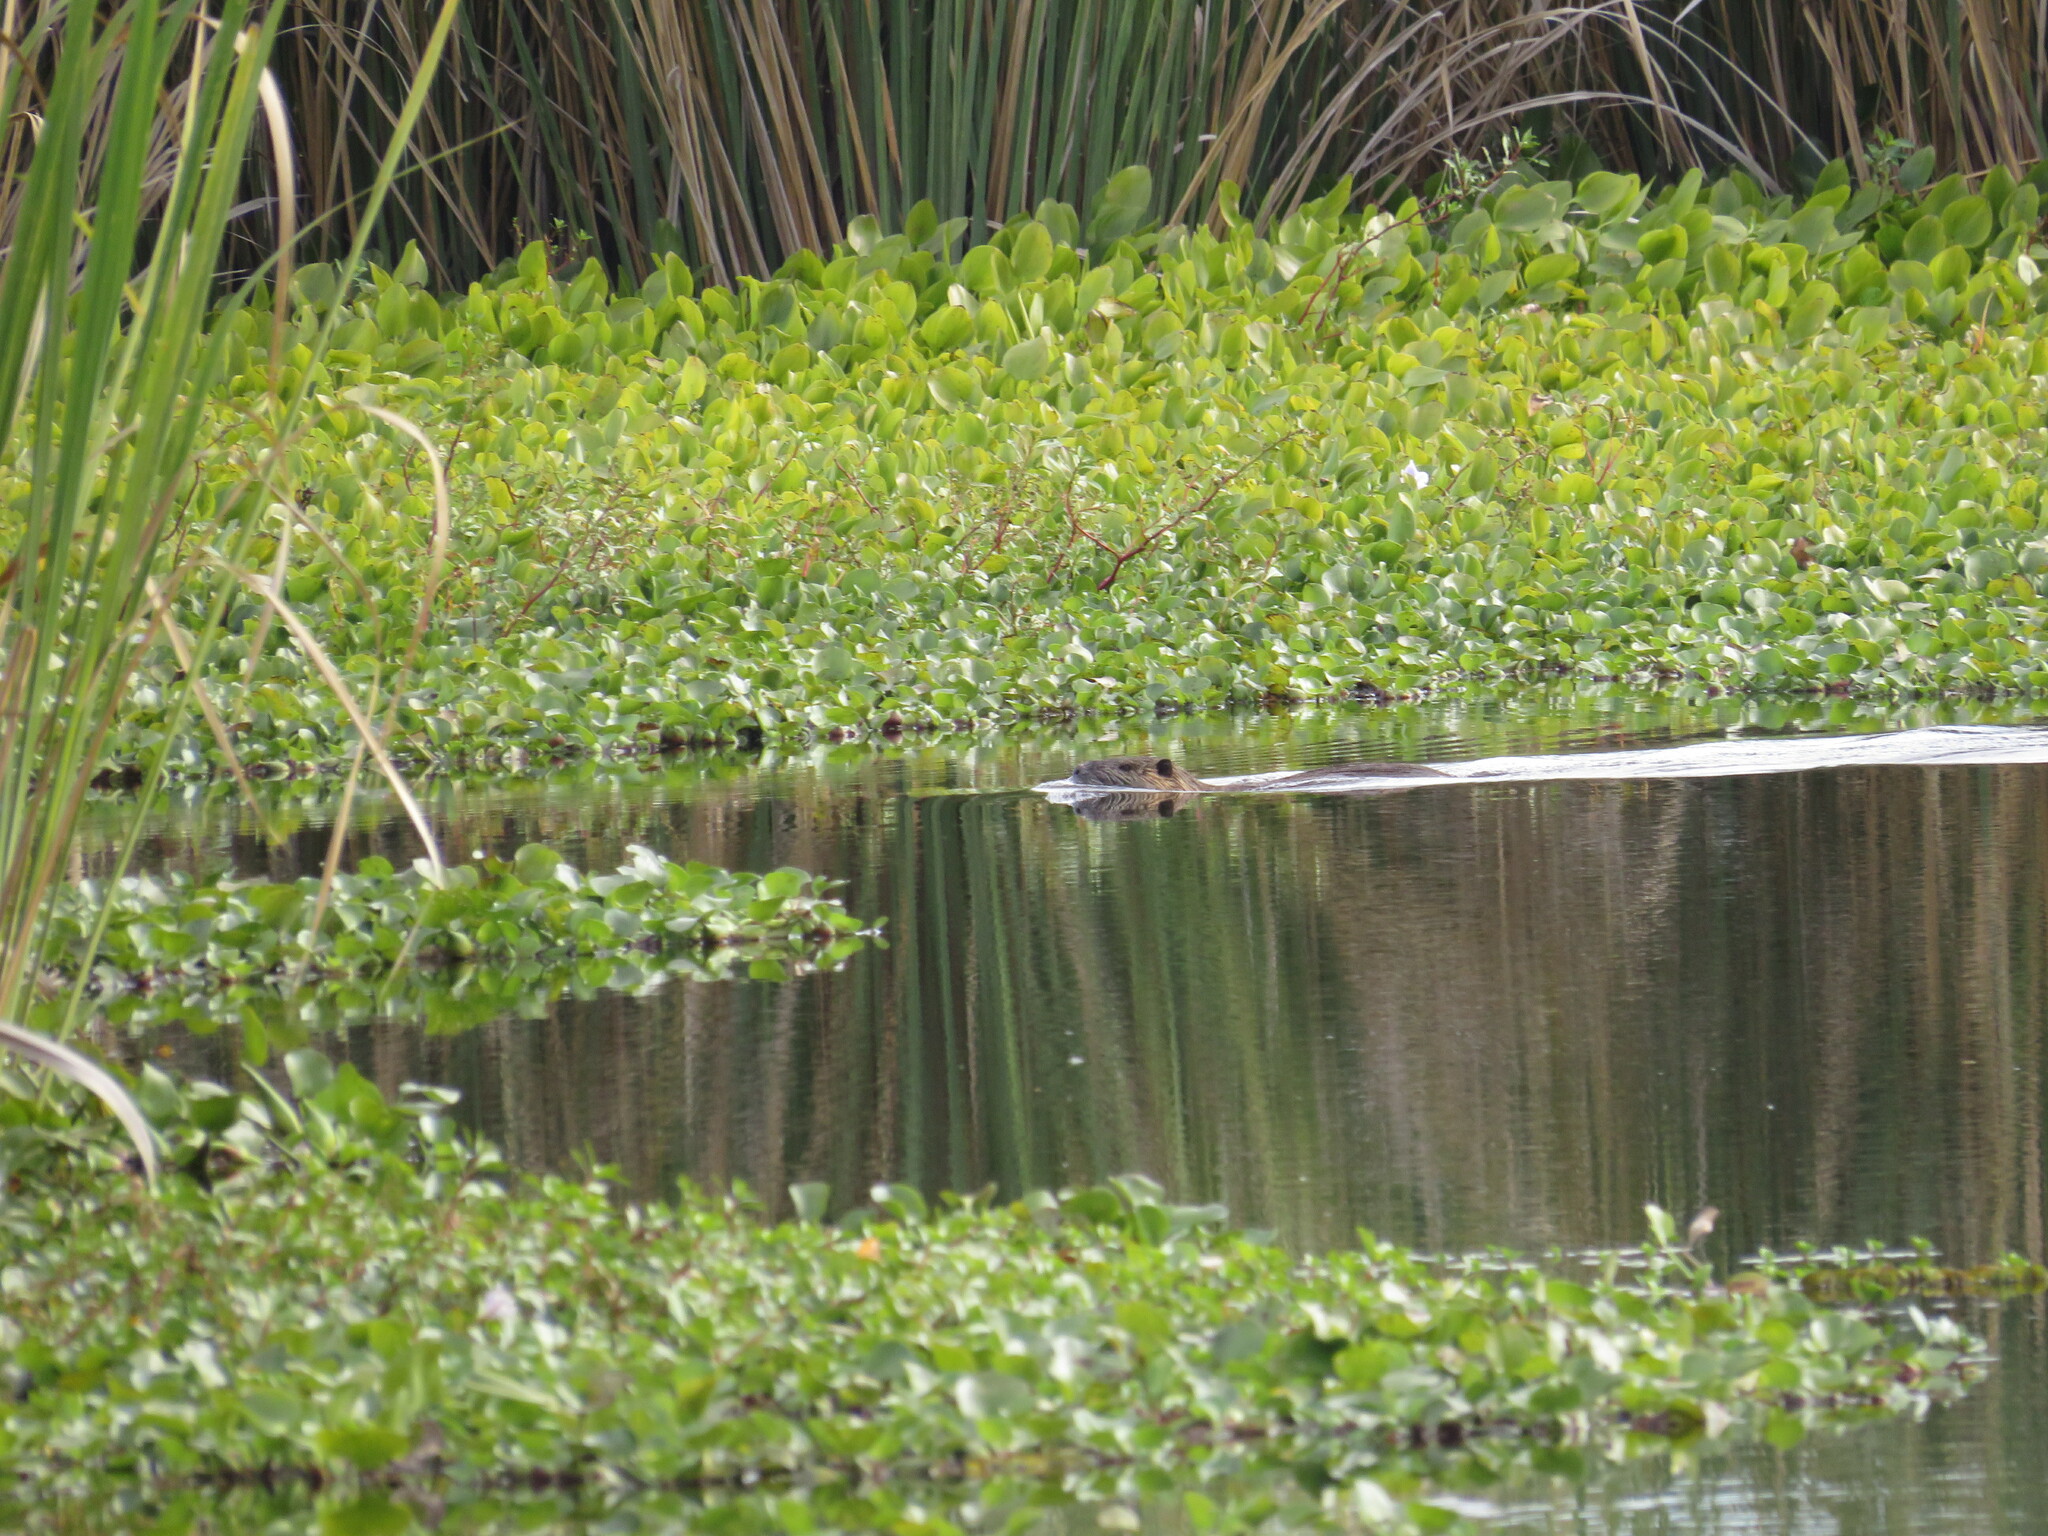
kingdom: Animalia
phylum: Chordata
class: Mammalia
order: Rodentia
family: Myocastoridae
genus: Myocastor
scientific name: Myocastor coypus
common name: Coypu
